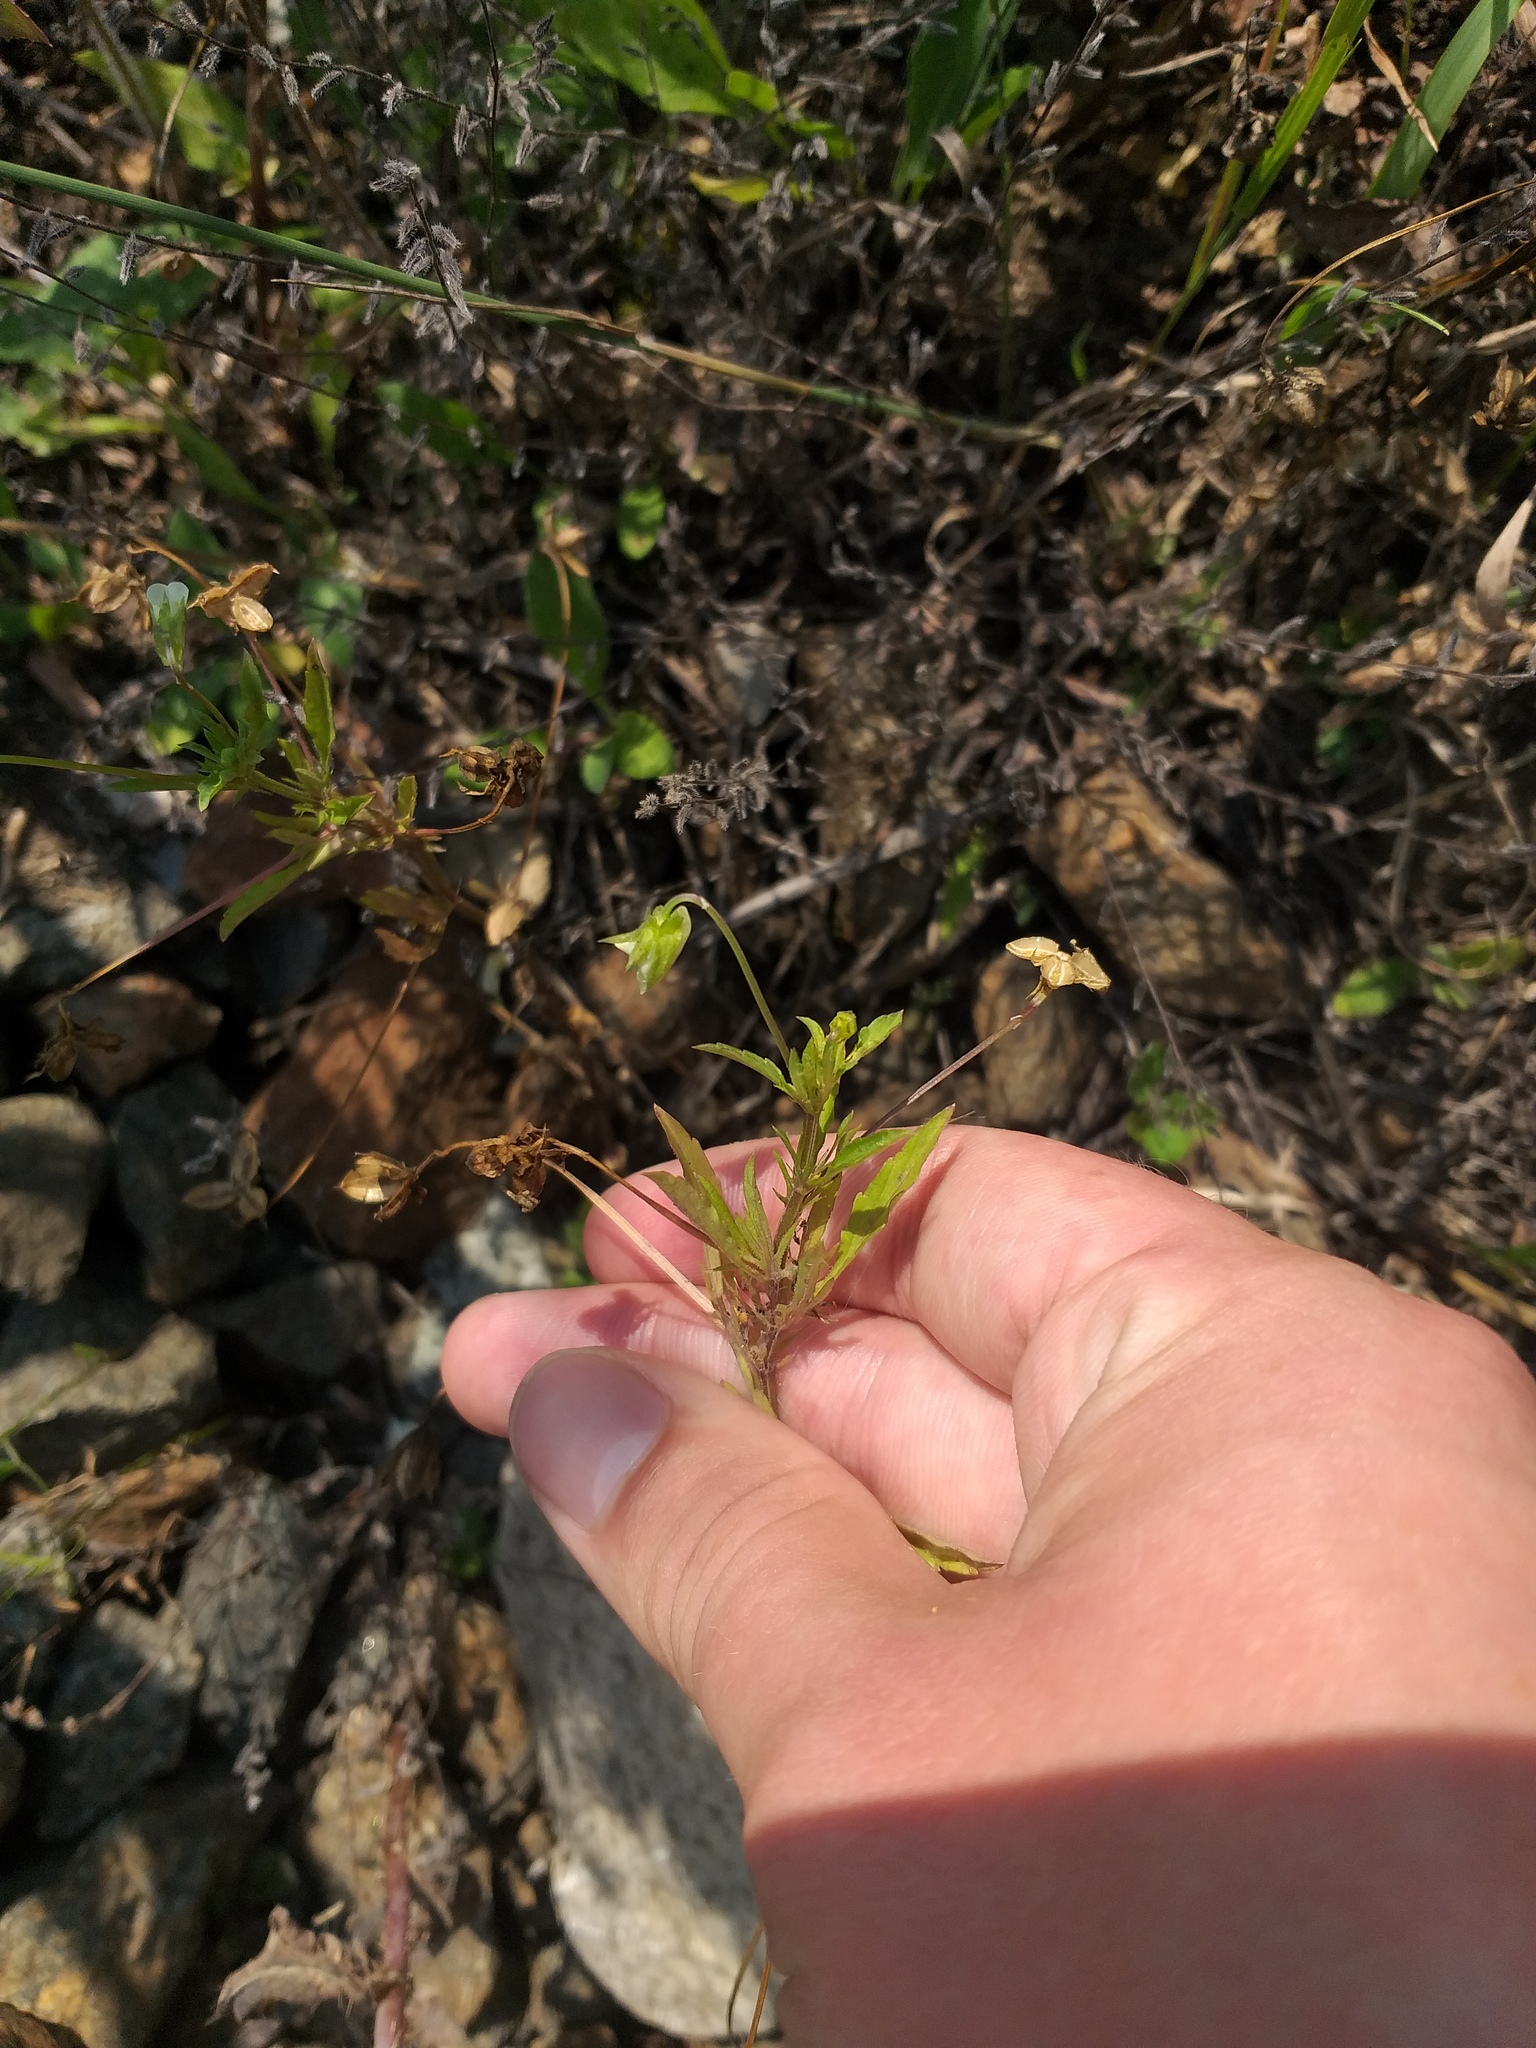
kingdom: Plantae
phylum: Tracheophyta
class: Magnoliopsida
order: Malpighiales
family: Violaceae
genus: Viola
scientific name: Viola arvensis
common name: Field pansy
